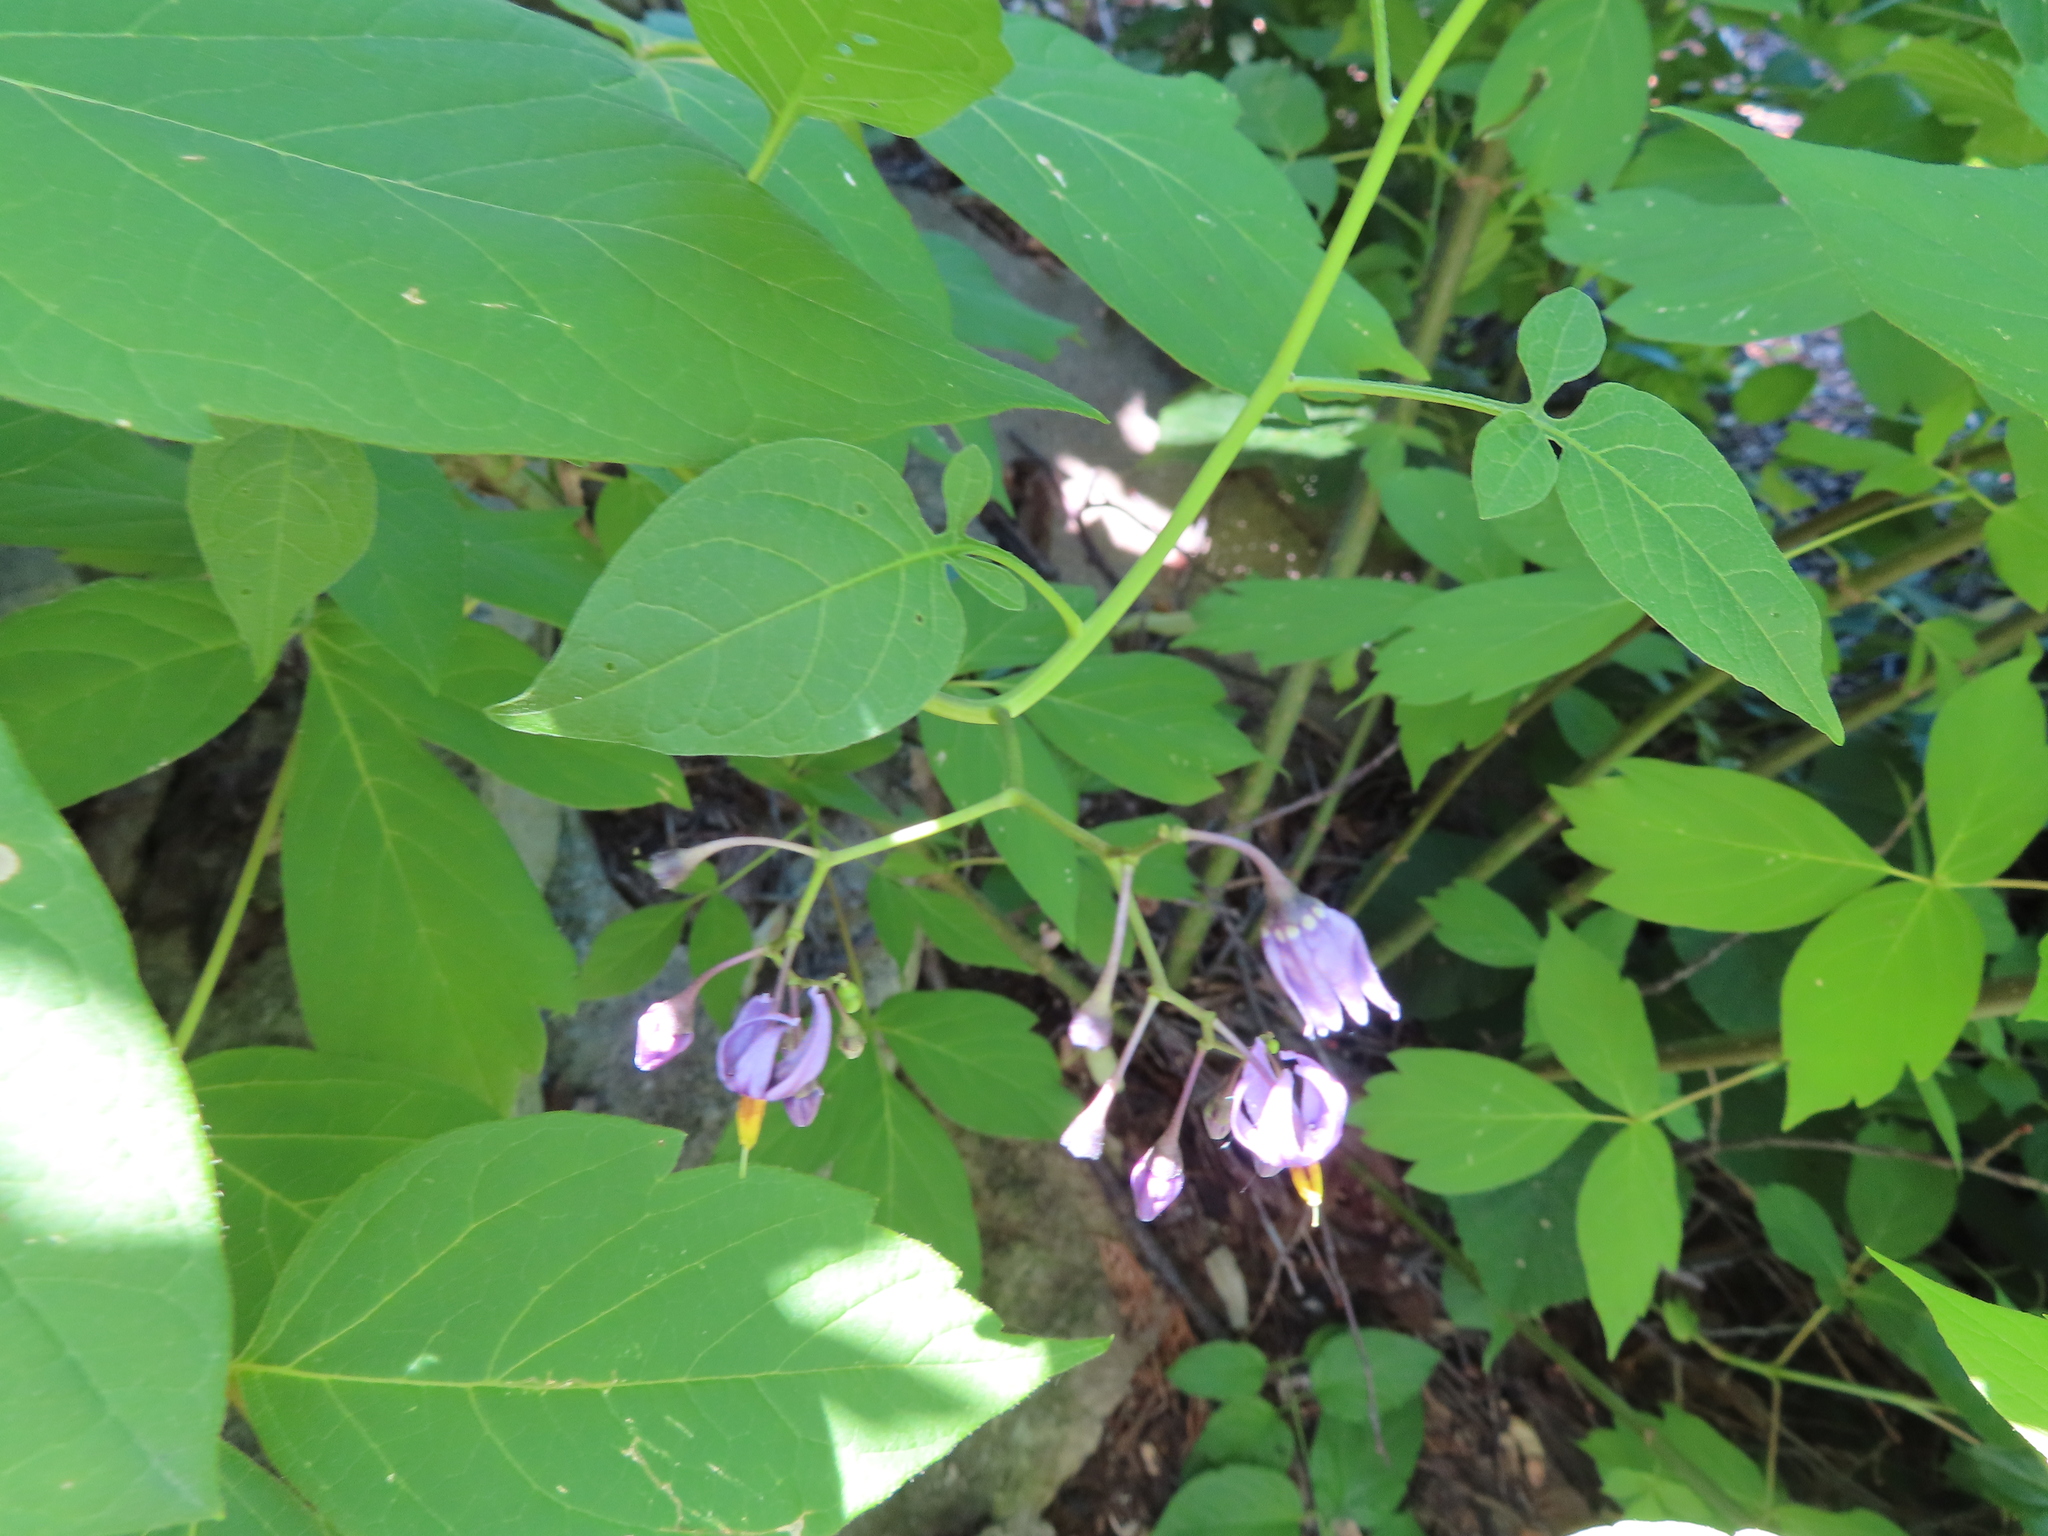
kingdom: Plantae
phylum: Tracheophyta
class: Magnoliopsida
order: Solanales
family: Solanaceae
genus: Solanum
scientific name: Solanum dulcamara
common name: Climbing nightshade
